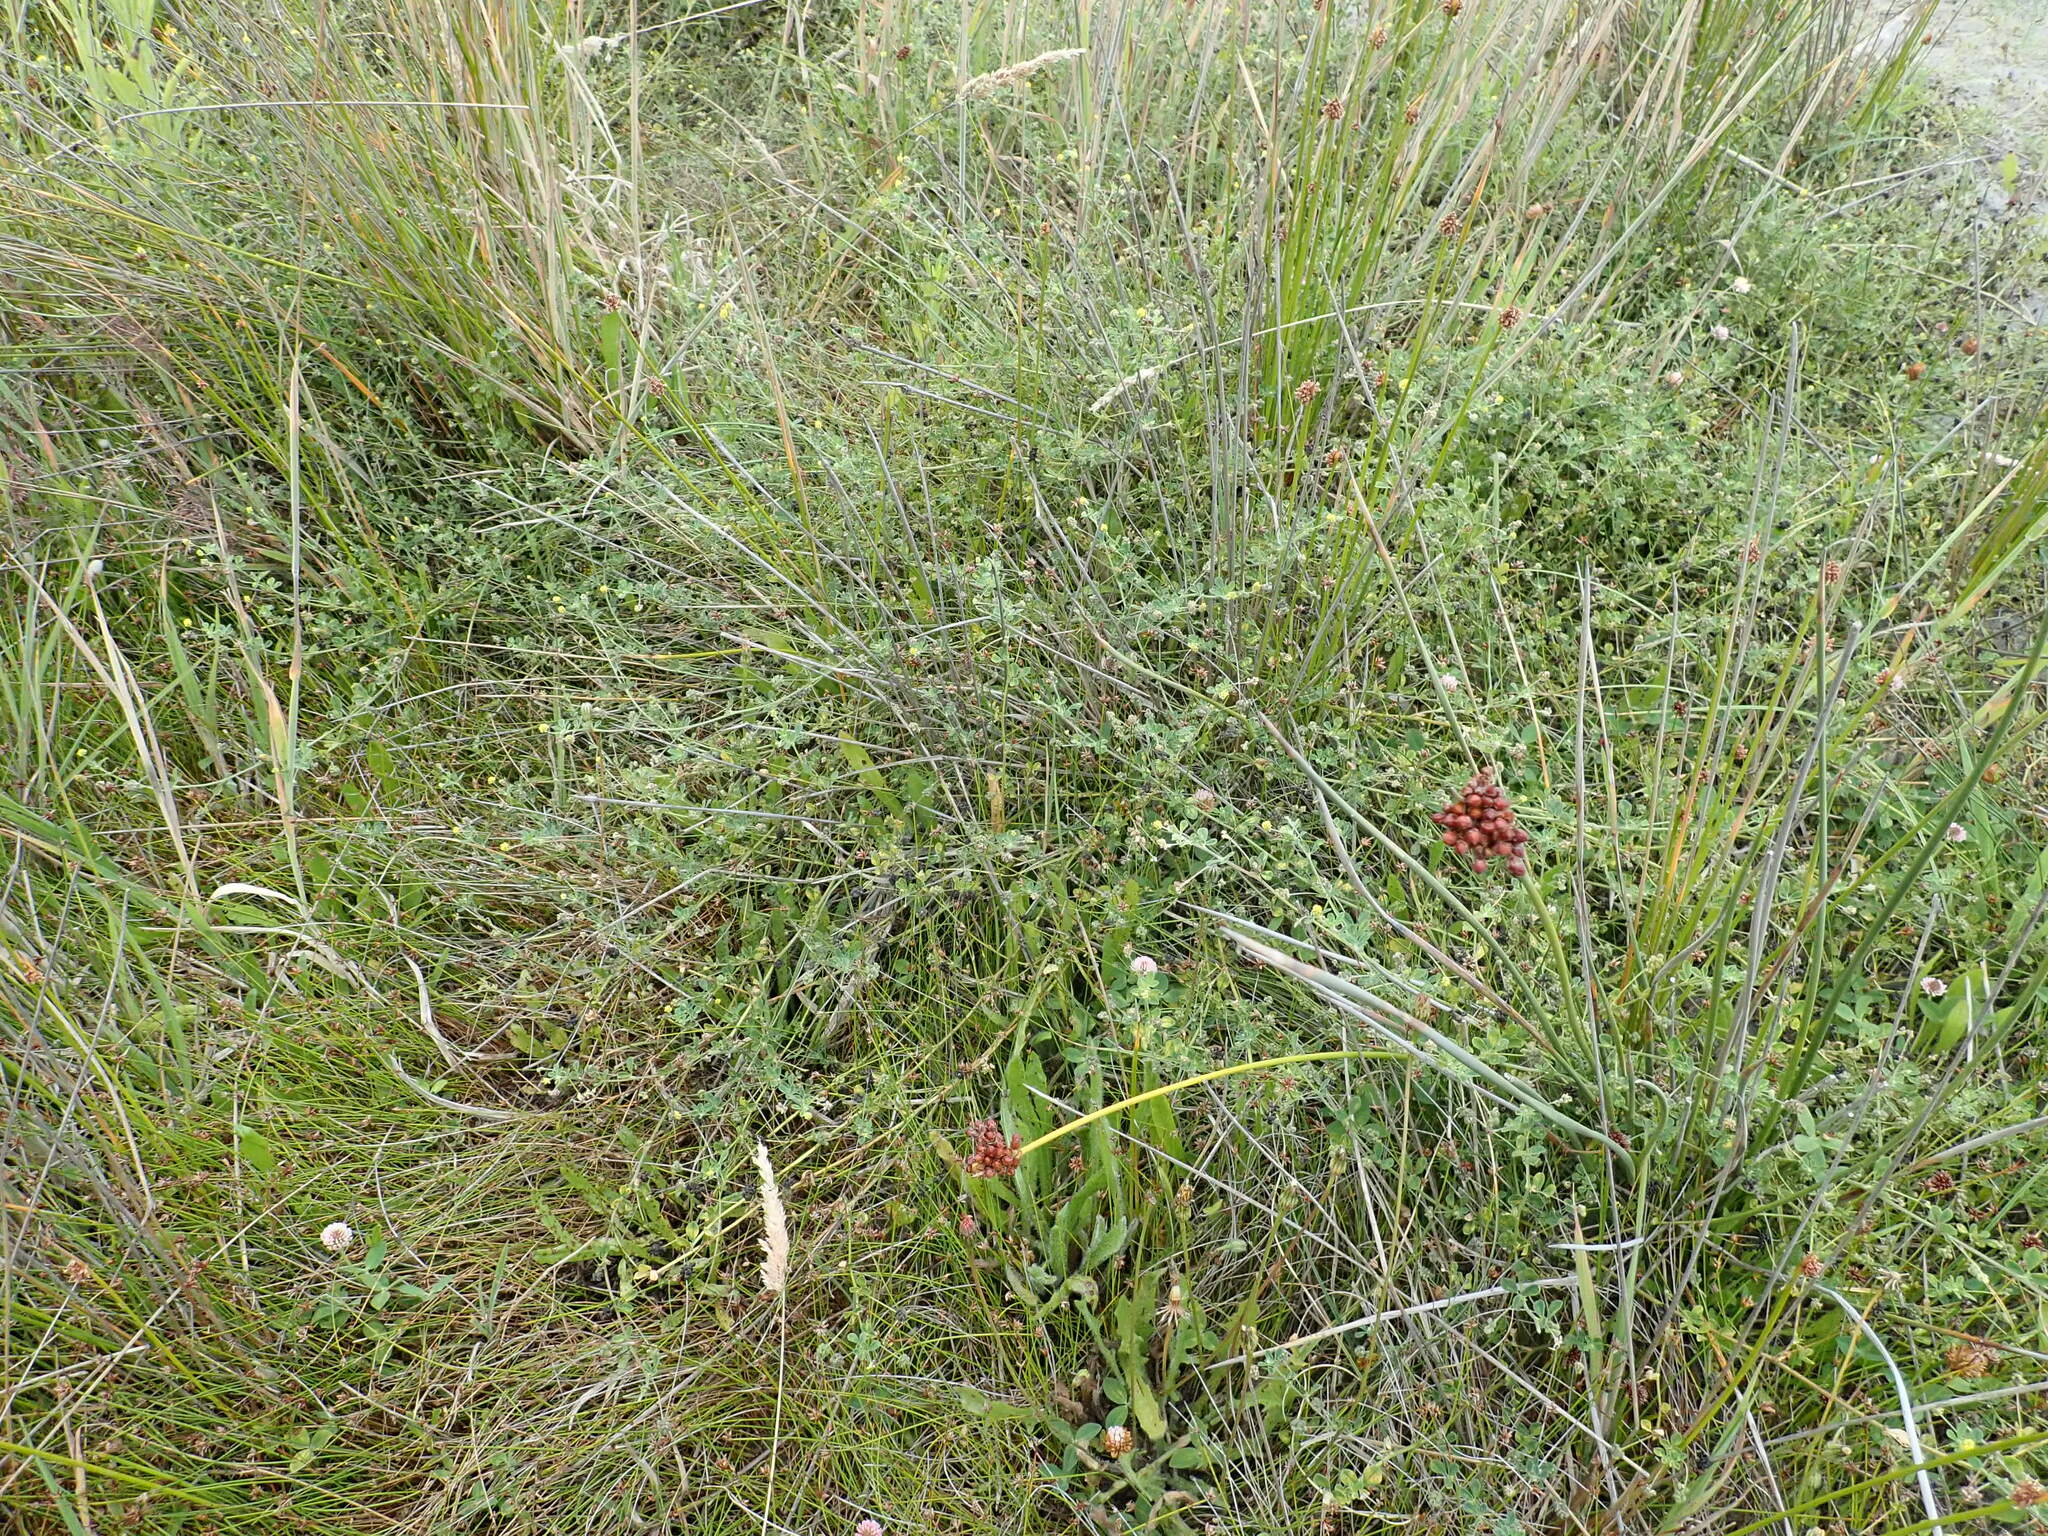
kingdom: Plantae
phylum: Tracheophyta
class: Magnoliopsida
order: Fabales
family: Fabaceae
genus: Medicago
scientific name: Medicago lupulina
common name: Black medick
